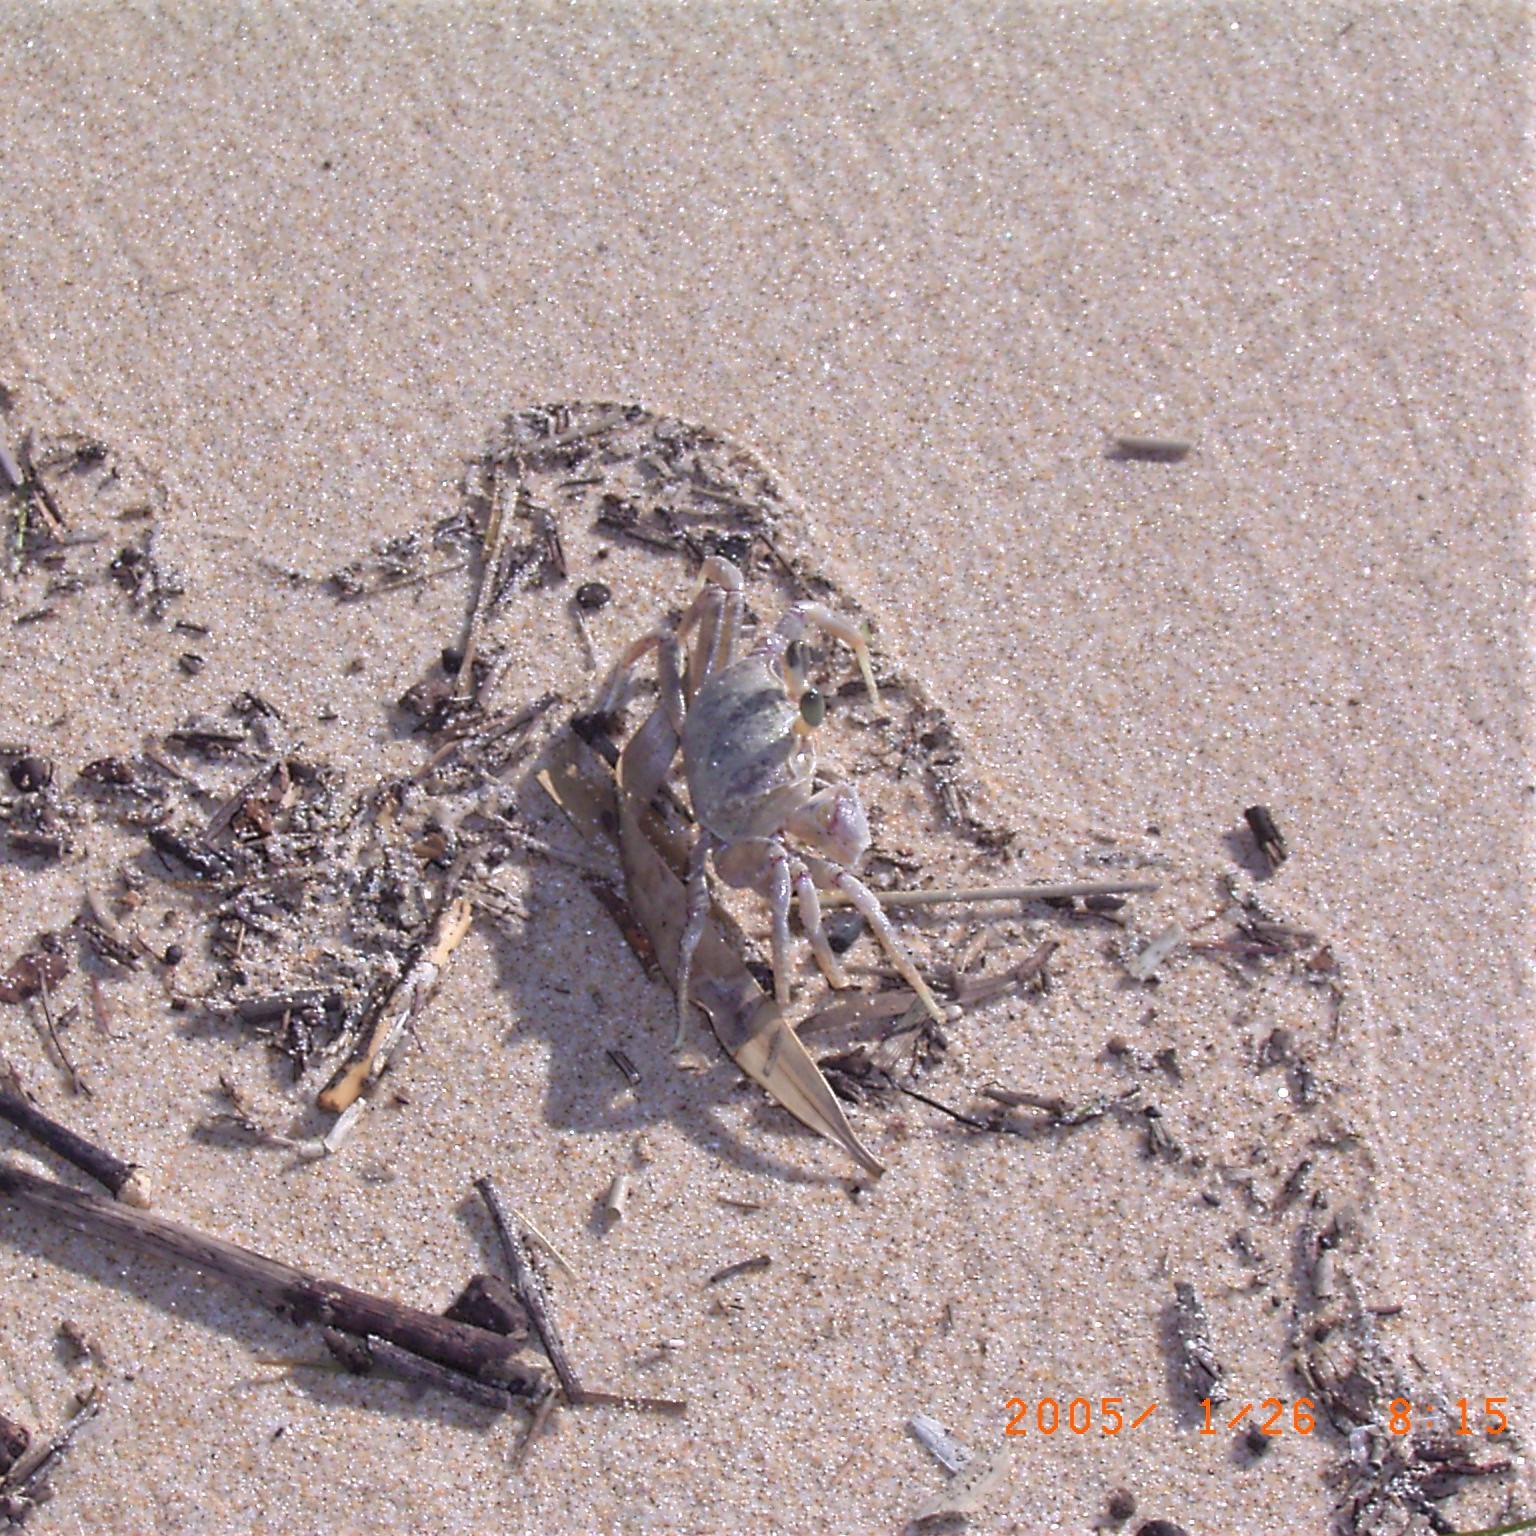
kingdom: Animalia
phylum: Arthropoda
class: Malacostraca
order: Decapoda
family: Ocypodidae
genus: Ocypode
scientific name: Ocypode ryderi
